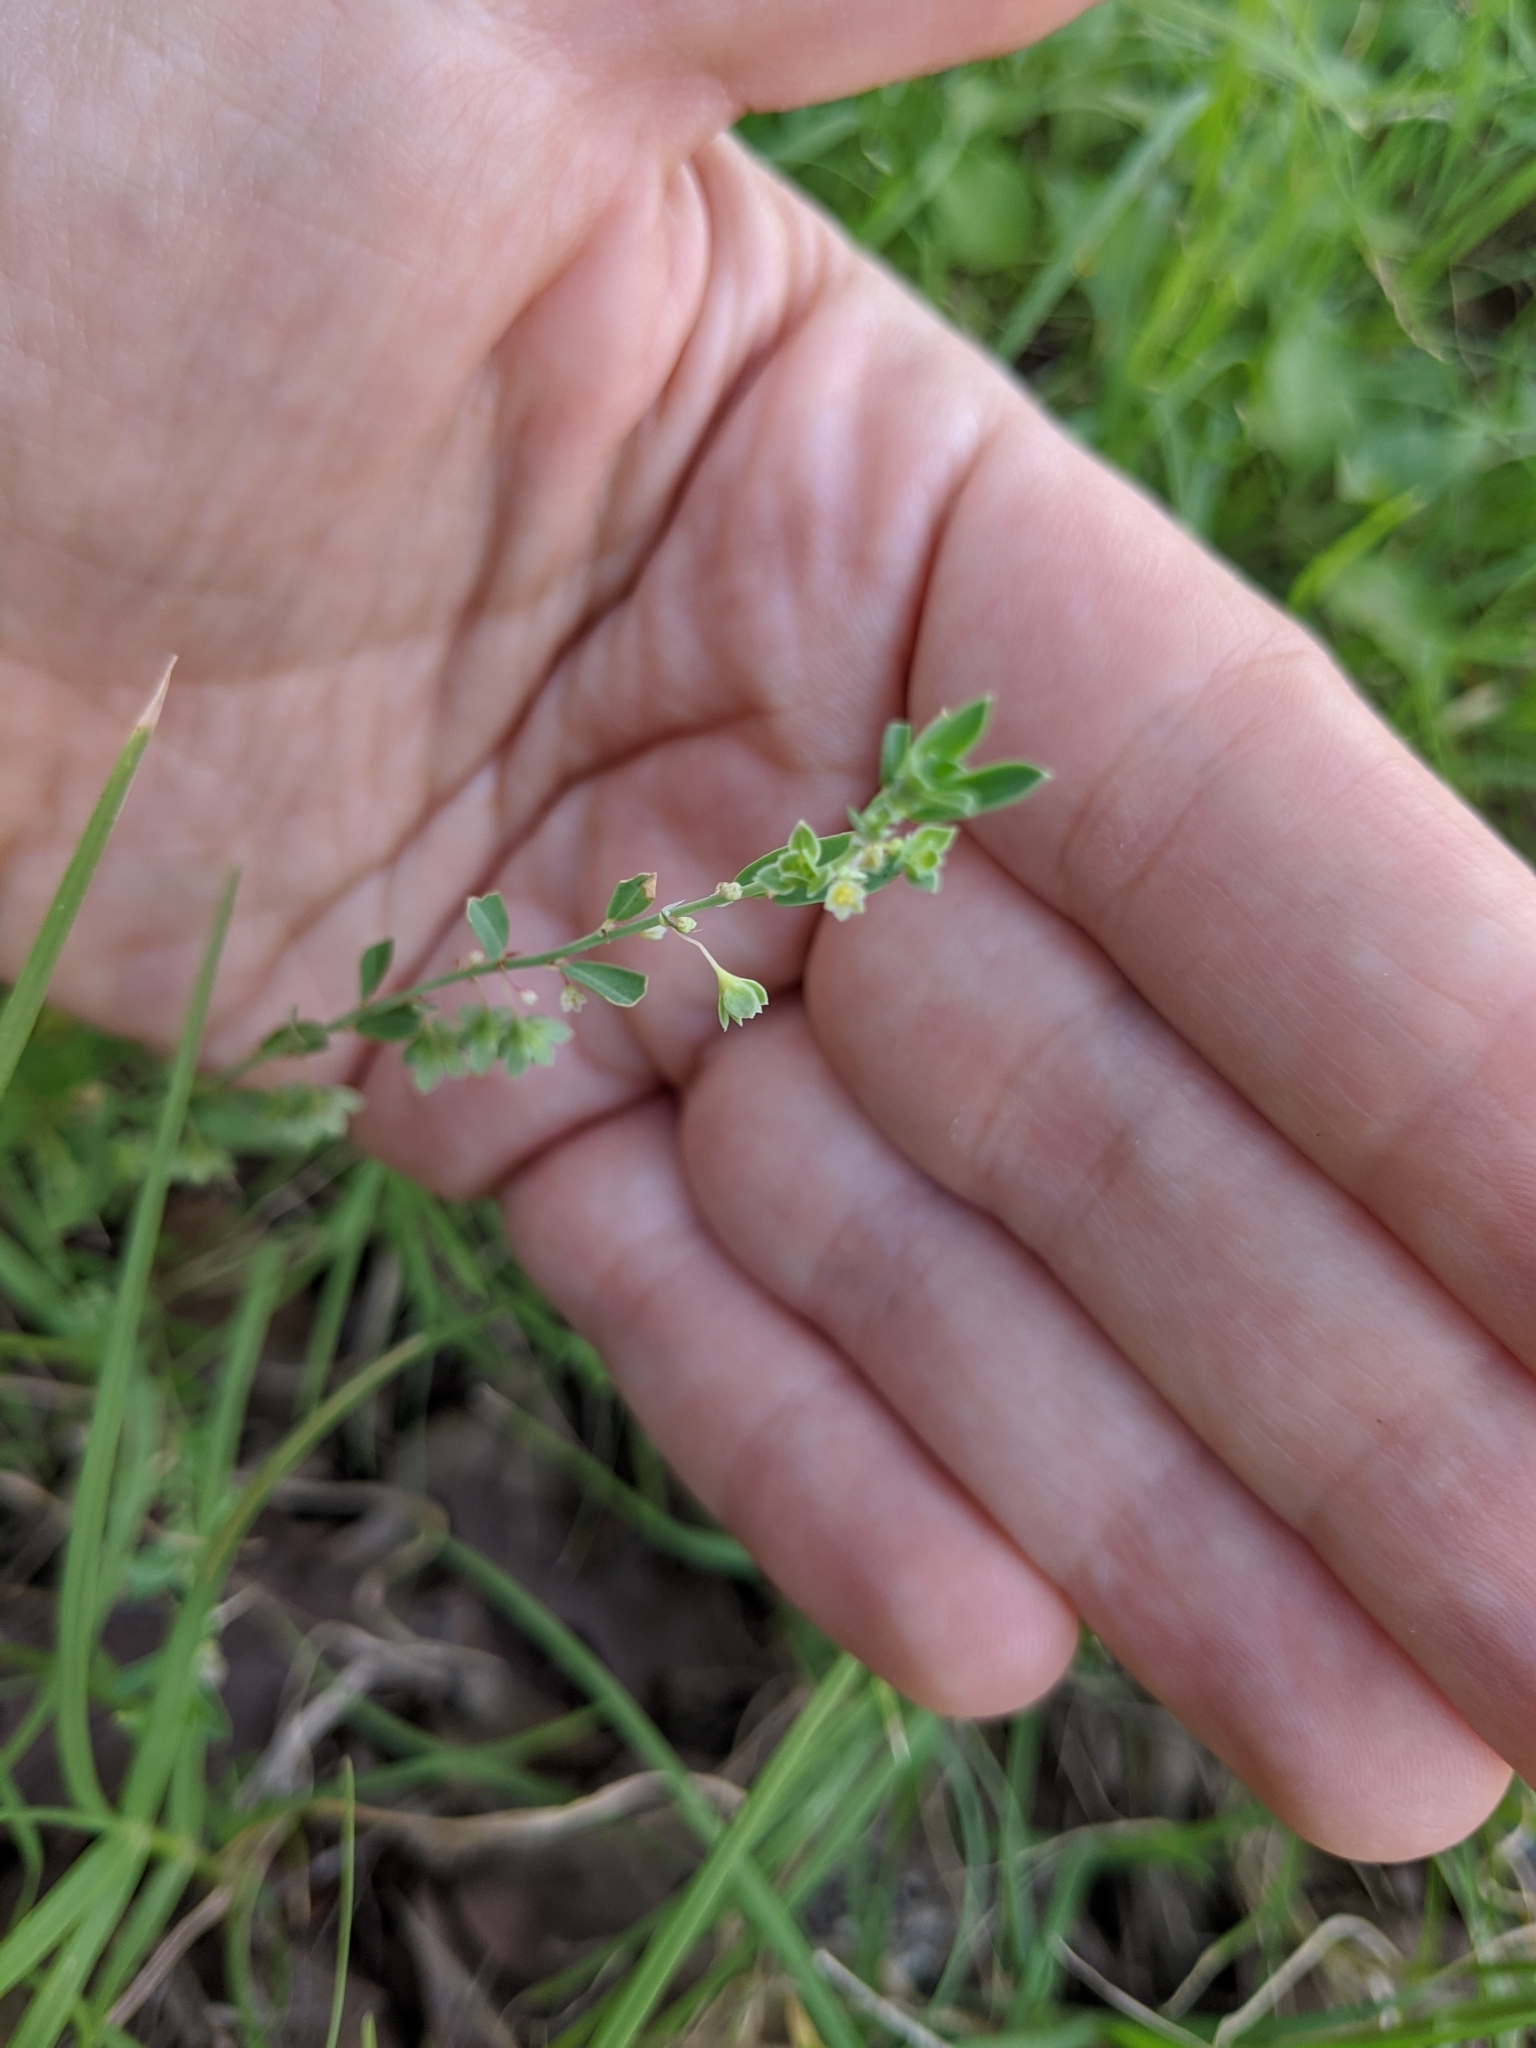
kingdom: Plantae
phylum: Tracheophyta
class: Magnoliopsida
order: Malpighiales
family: Phyllanthaceae
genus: Phyllanthus
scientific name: Phyllanthus polygonoides
